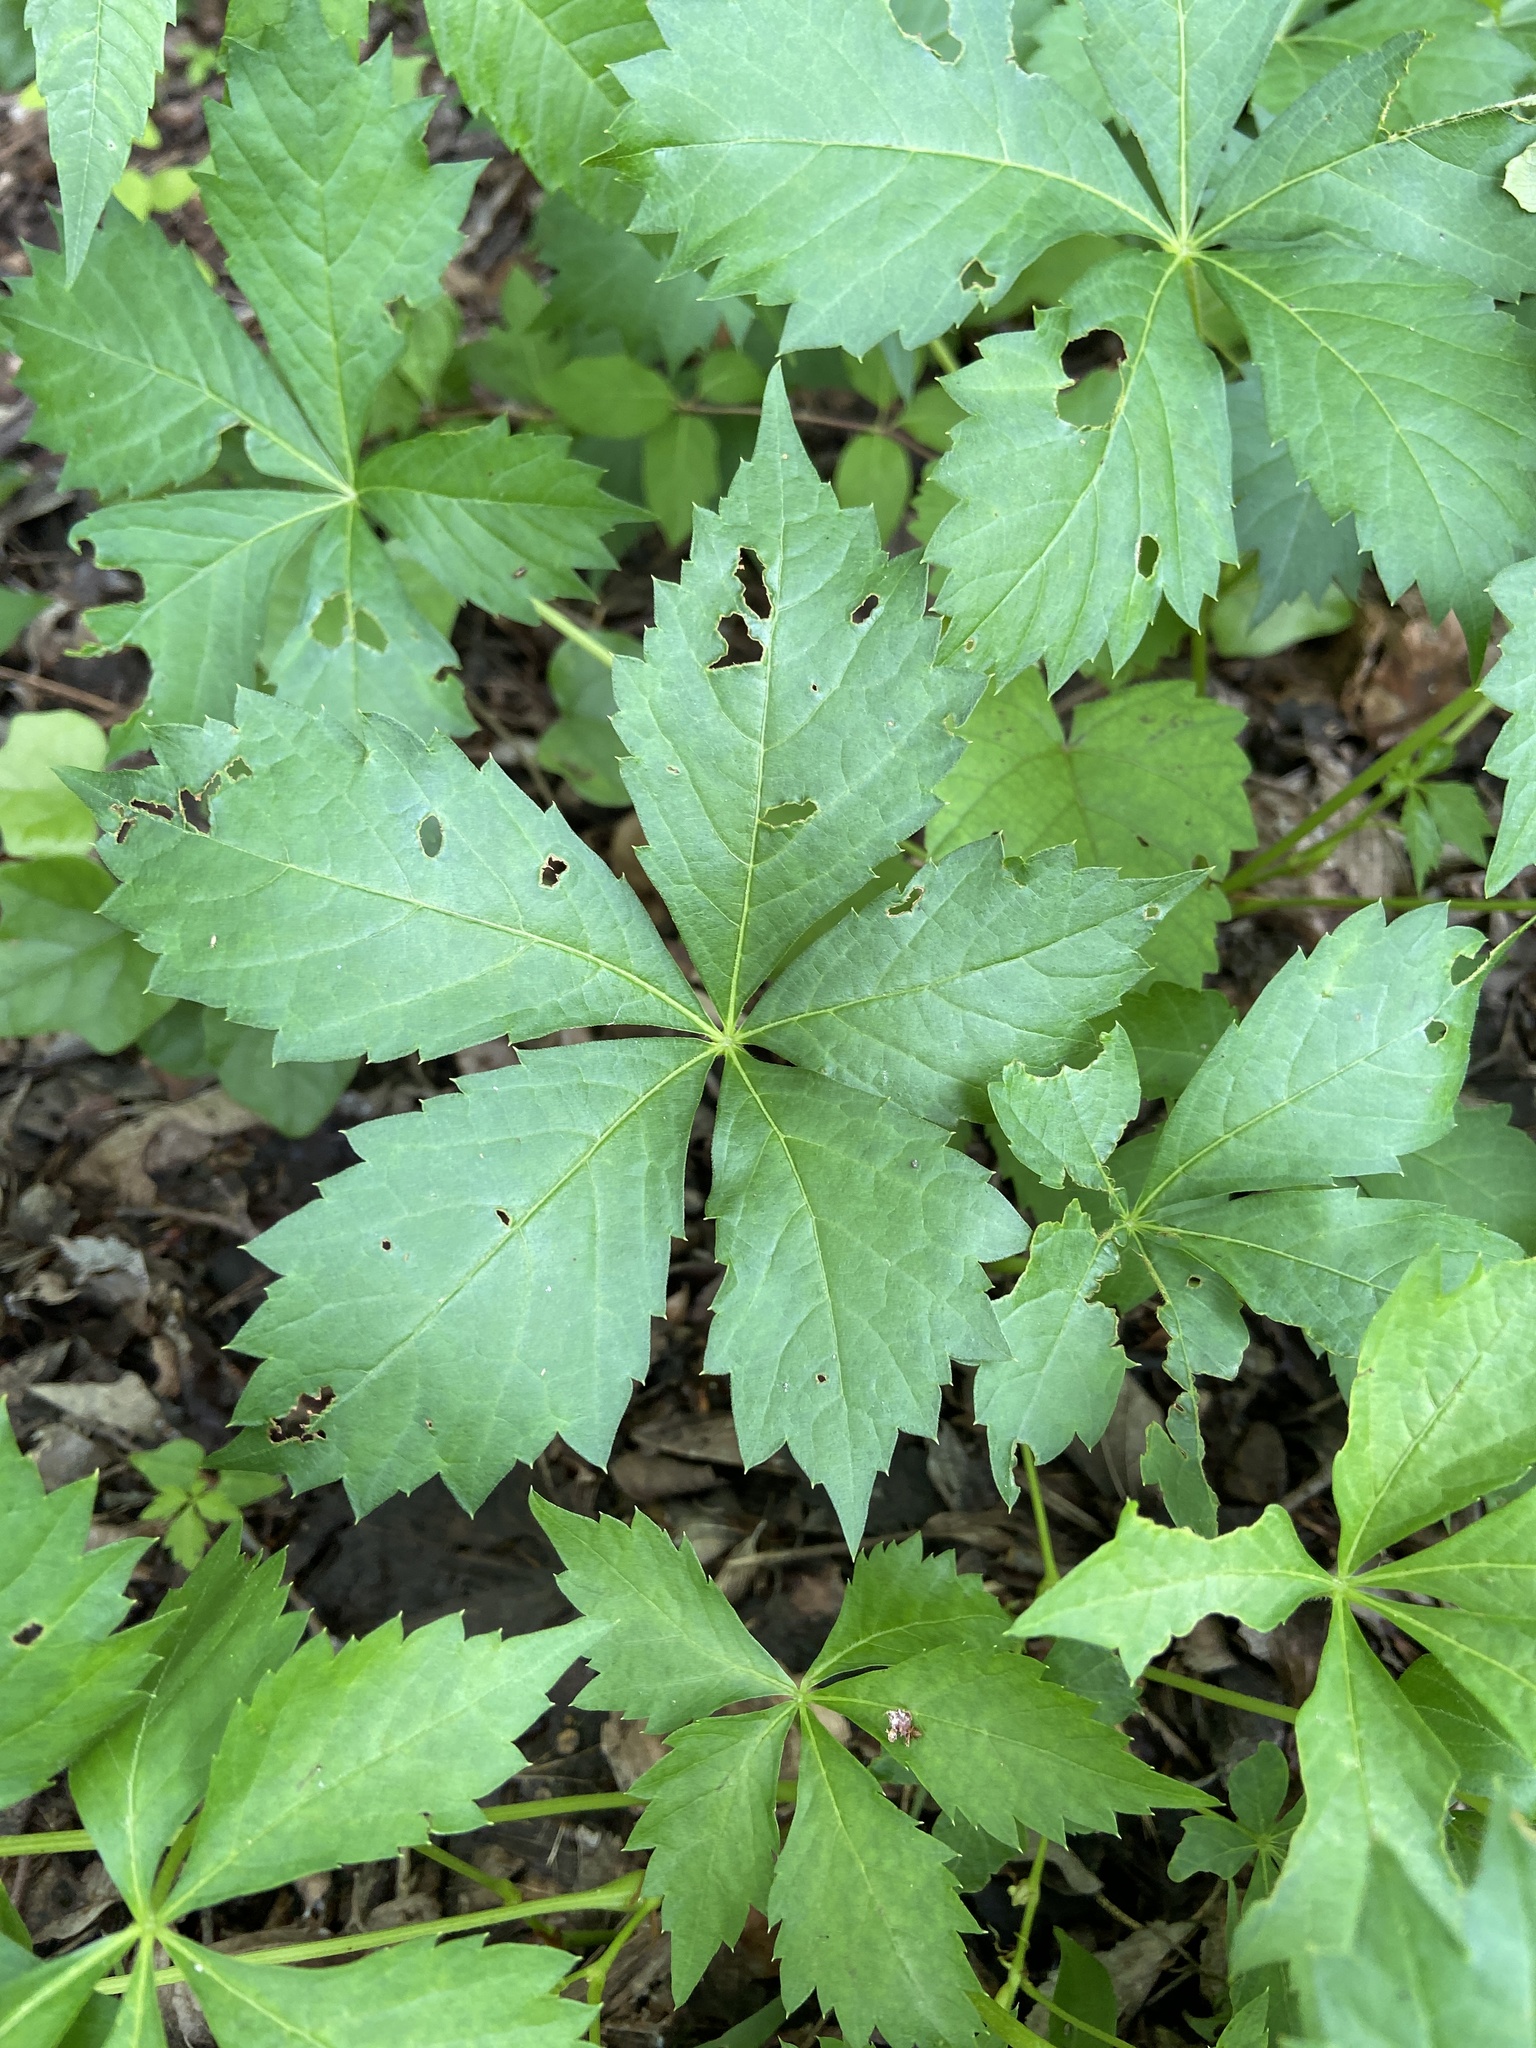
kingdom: Plantae
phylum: Tracheophyta
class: Magnoliopsida
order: Vitales
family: Vitaceae
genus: Parthenocissus
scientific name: Parthenocissus quinquefolia
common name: Virginia-creeper
